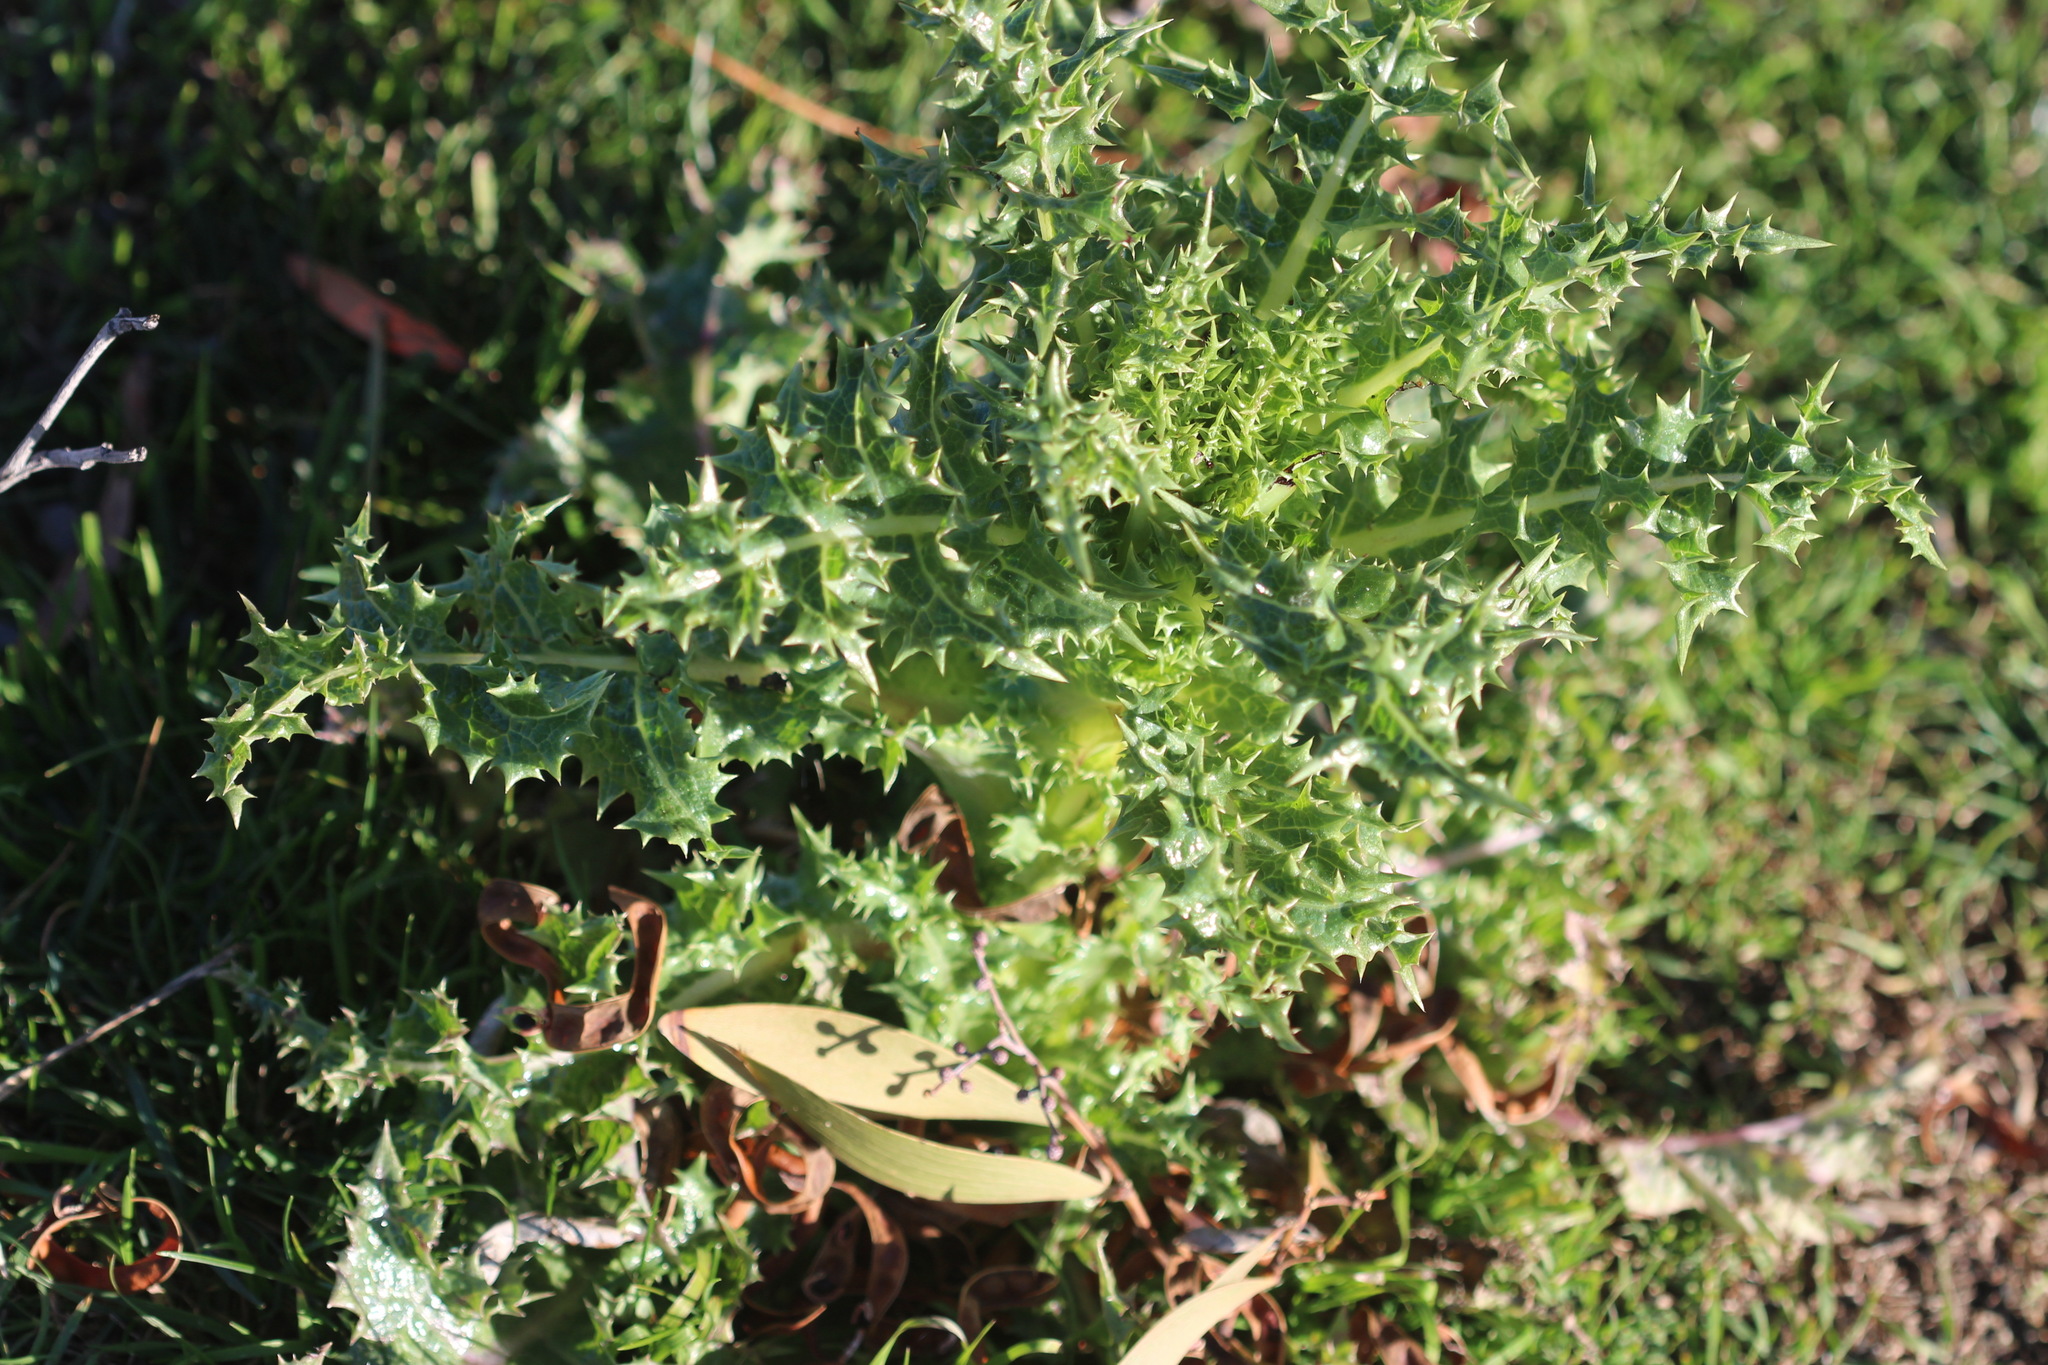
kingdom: Plantae
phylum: Tracheophyta
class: Magnoliopsida
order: Asterales
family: Asteraceae
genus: Sonchus
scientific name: Sonchus asper
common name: Prickly sow-thistle
